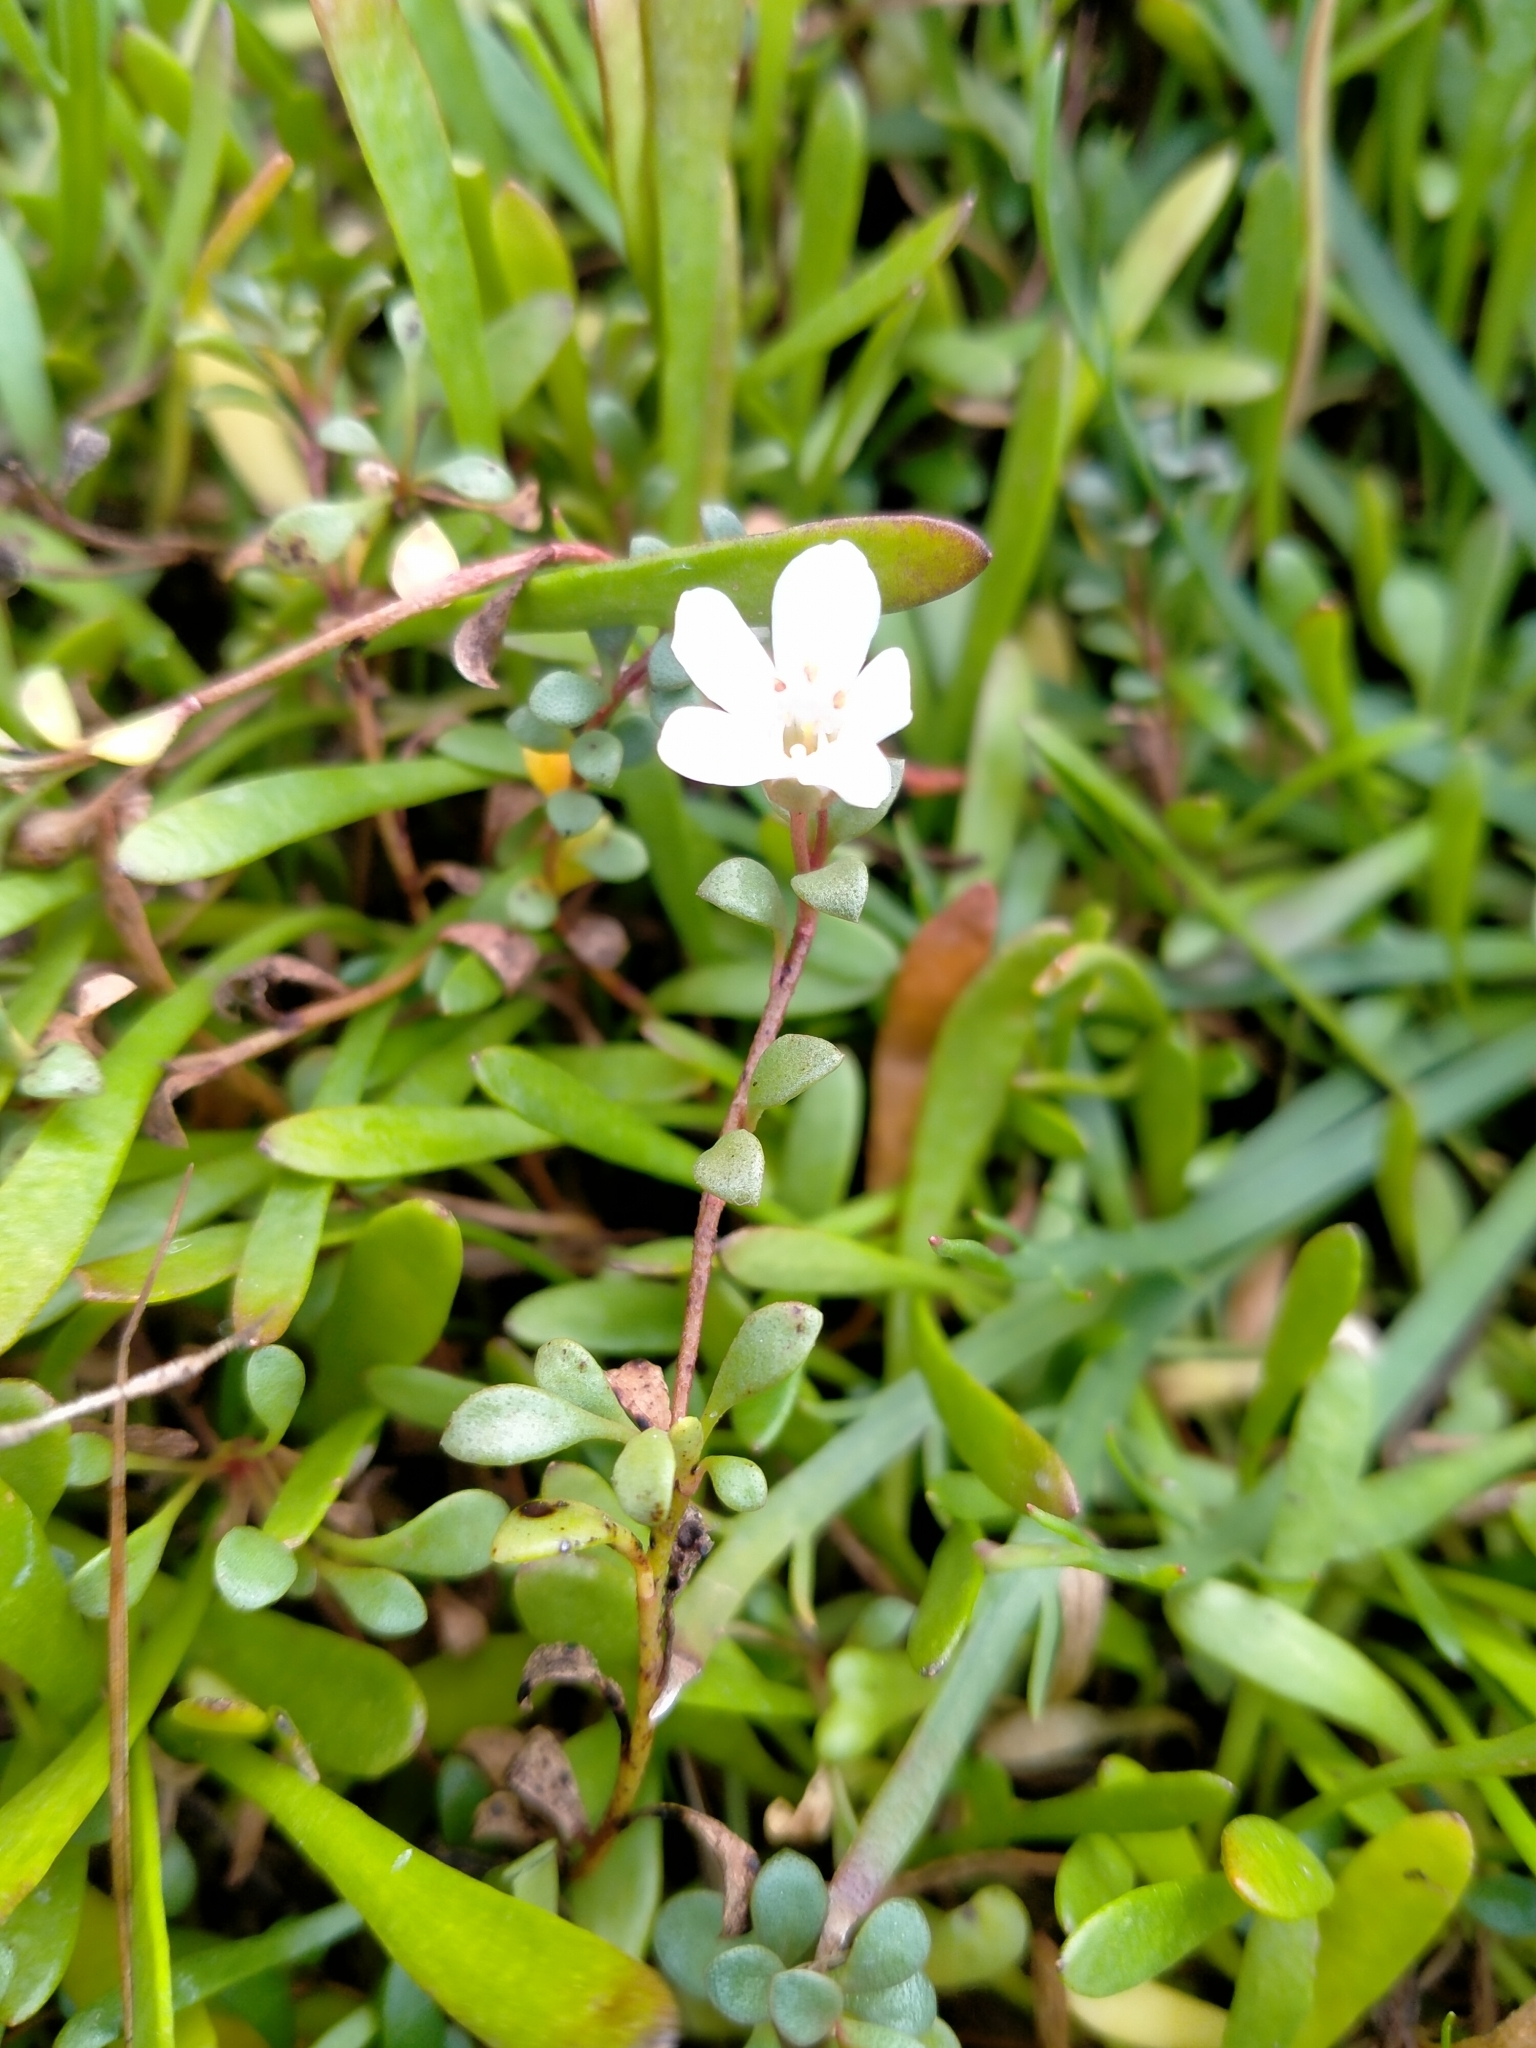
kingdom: Plantae
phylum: Tracheophyta
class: Magnoliopsida
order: Ericales
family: Primulaceae
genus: Samolus
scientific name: Samolus repens
